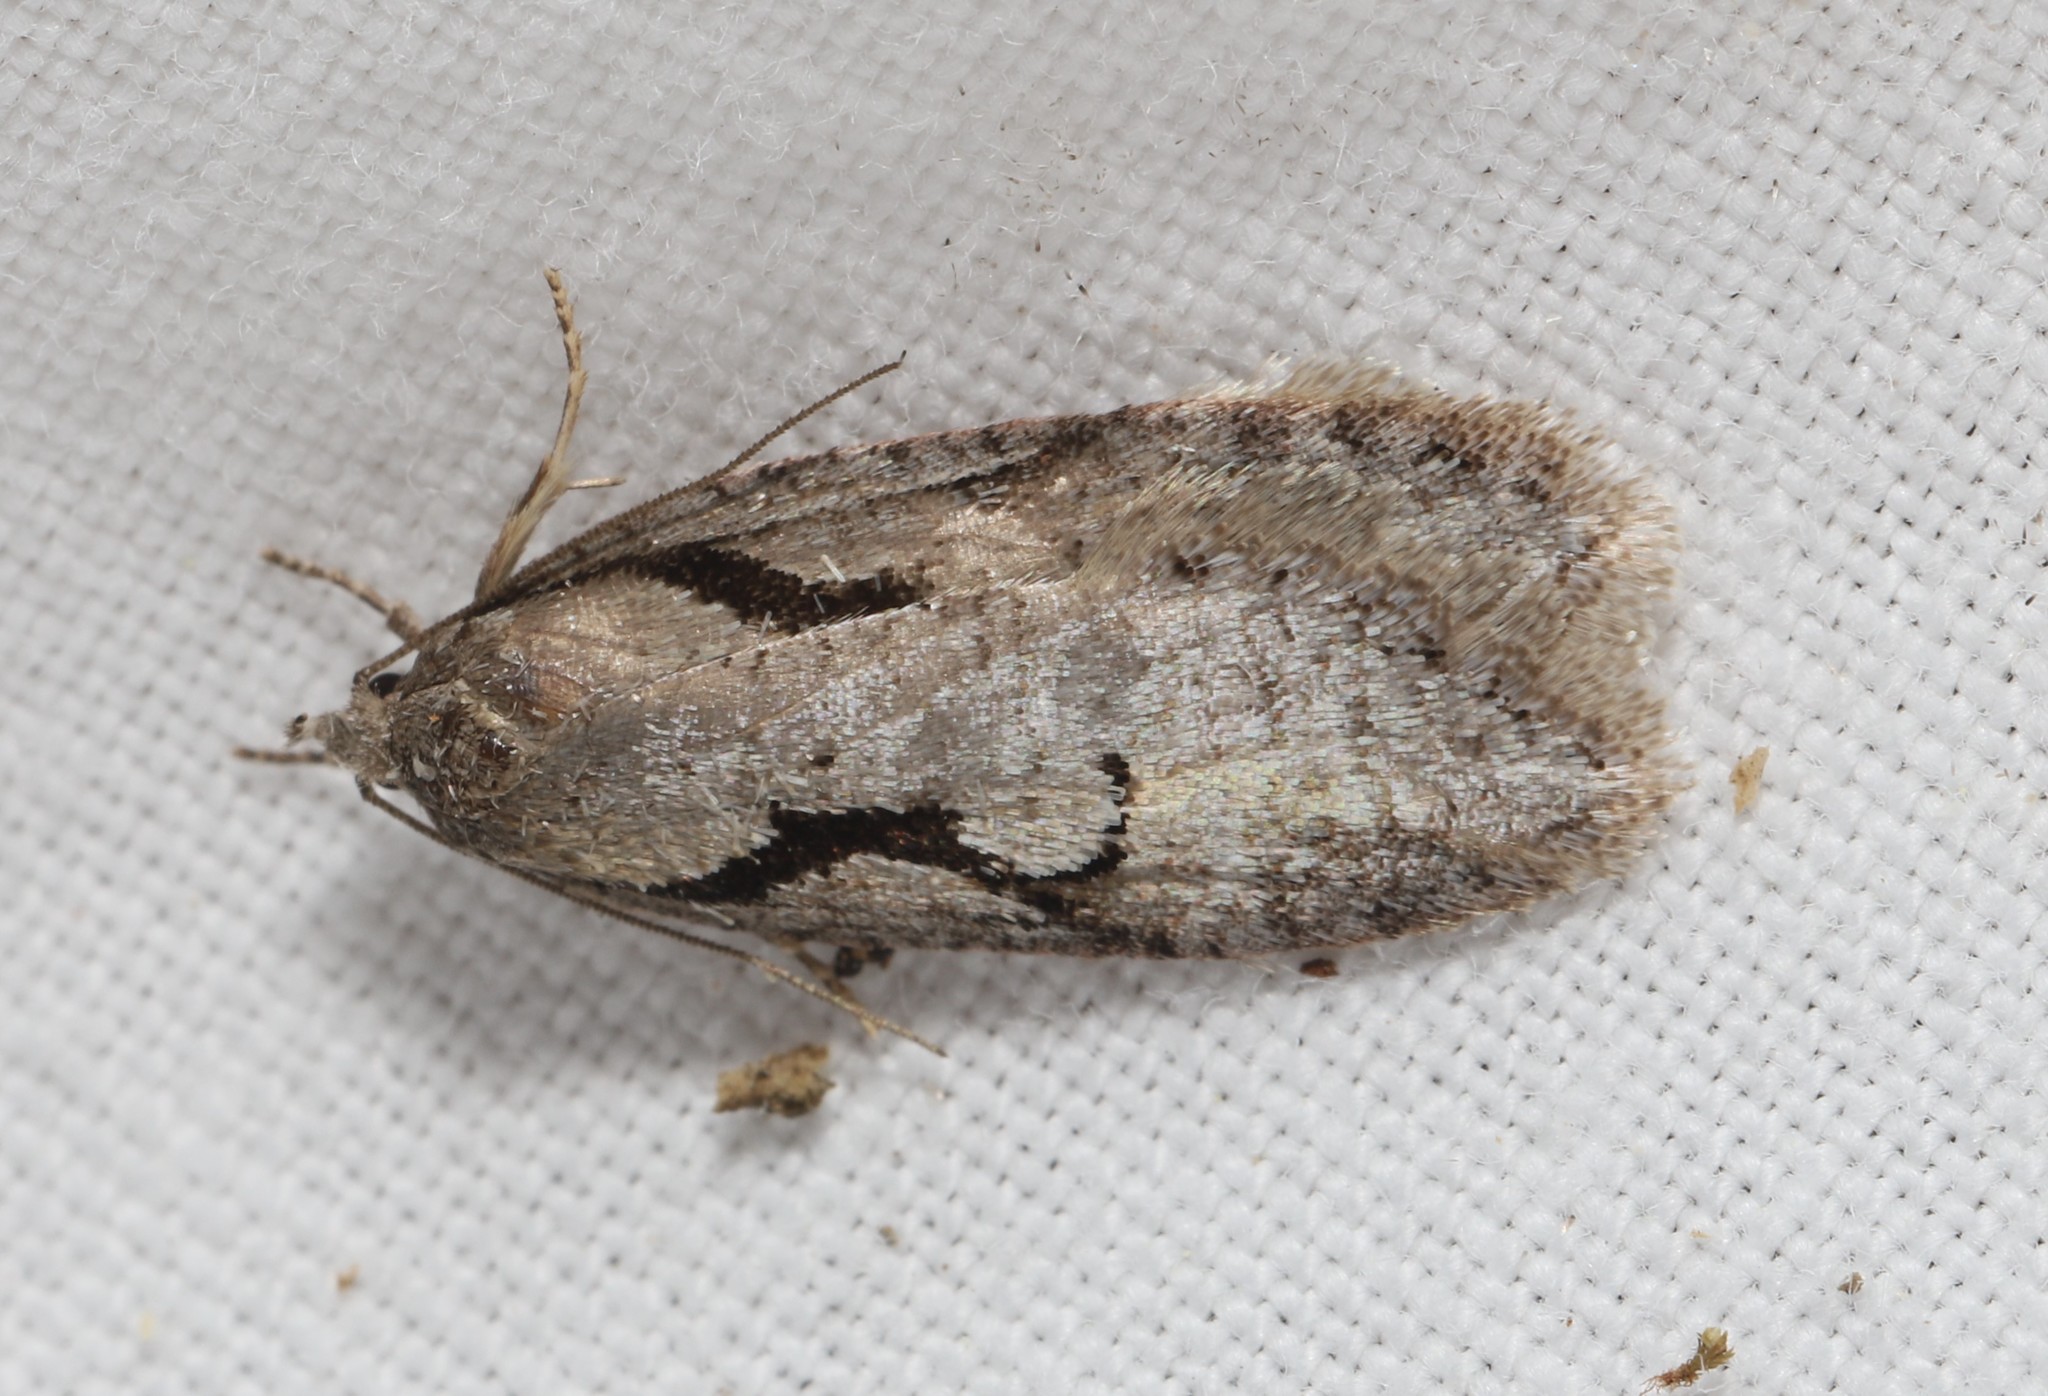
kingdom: Animalia
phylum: Arthropoda
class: Insecta
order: Lepidoptera
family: Depressariidae
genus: Semioscopis
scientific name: Semioscopis packardella
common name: Packard's concealer moth
